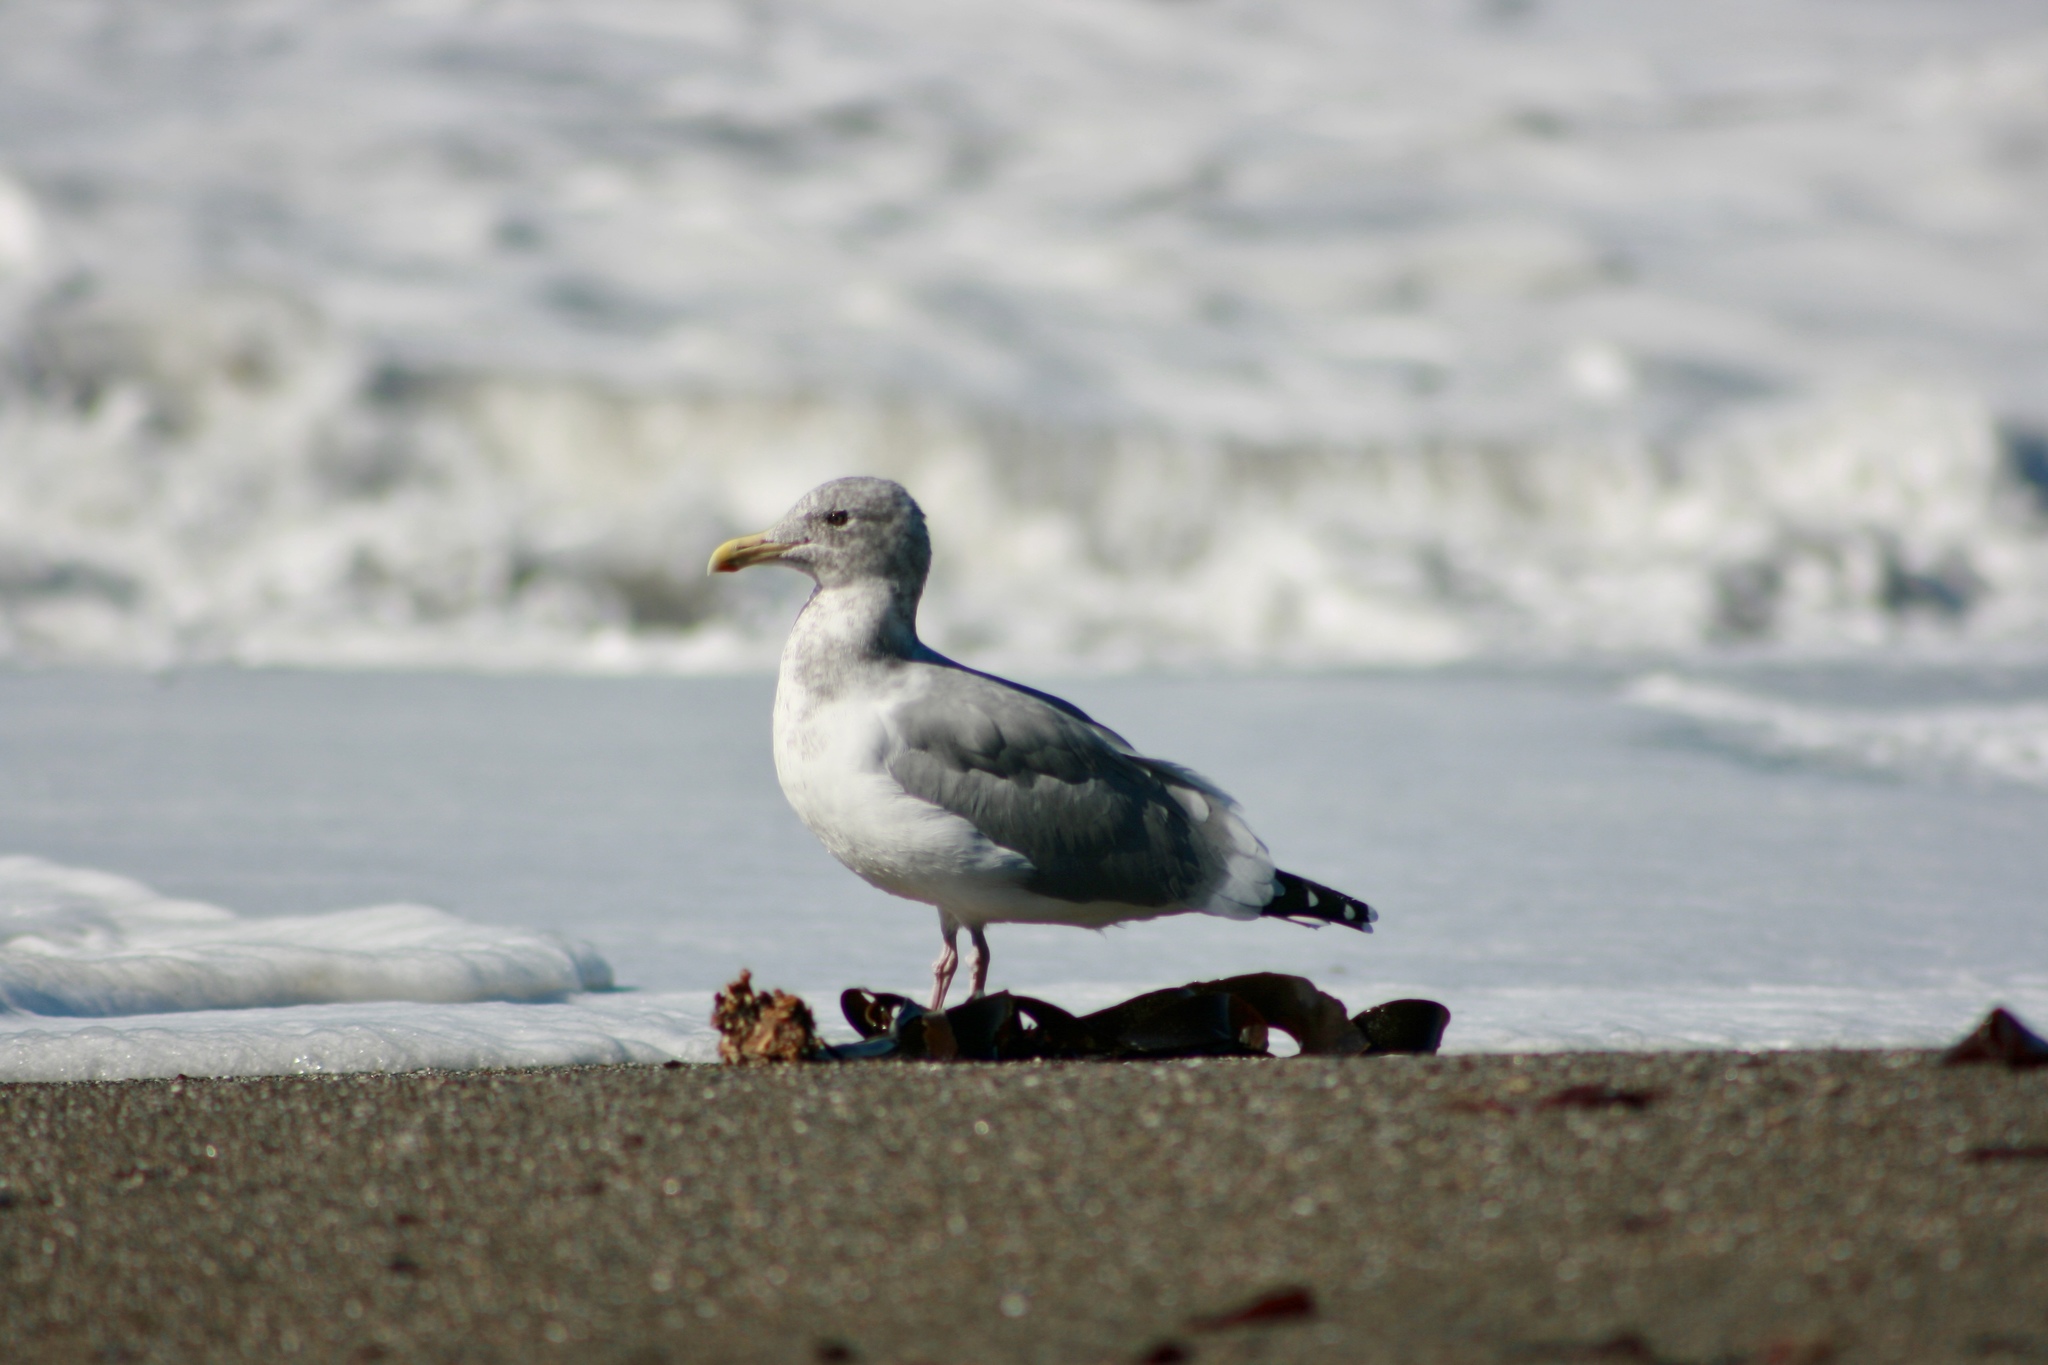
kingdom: Animalia
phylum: Chordata
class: Aves
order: Charadriiformes
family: Laridae
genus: Larus
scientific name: Larus
